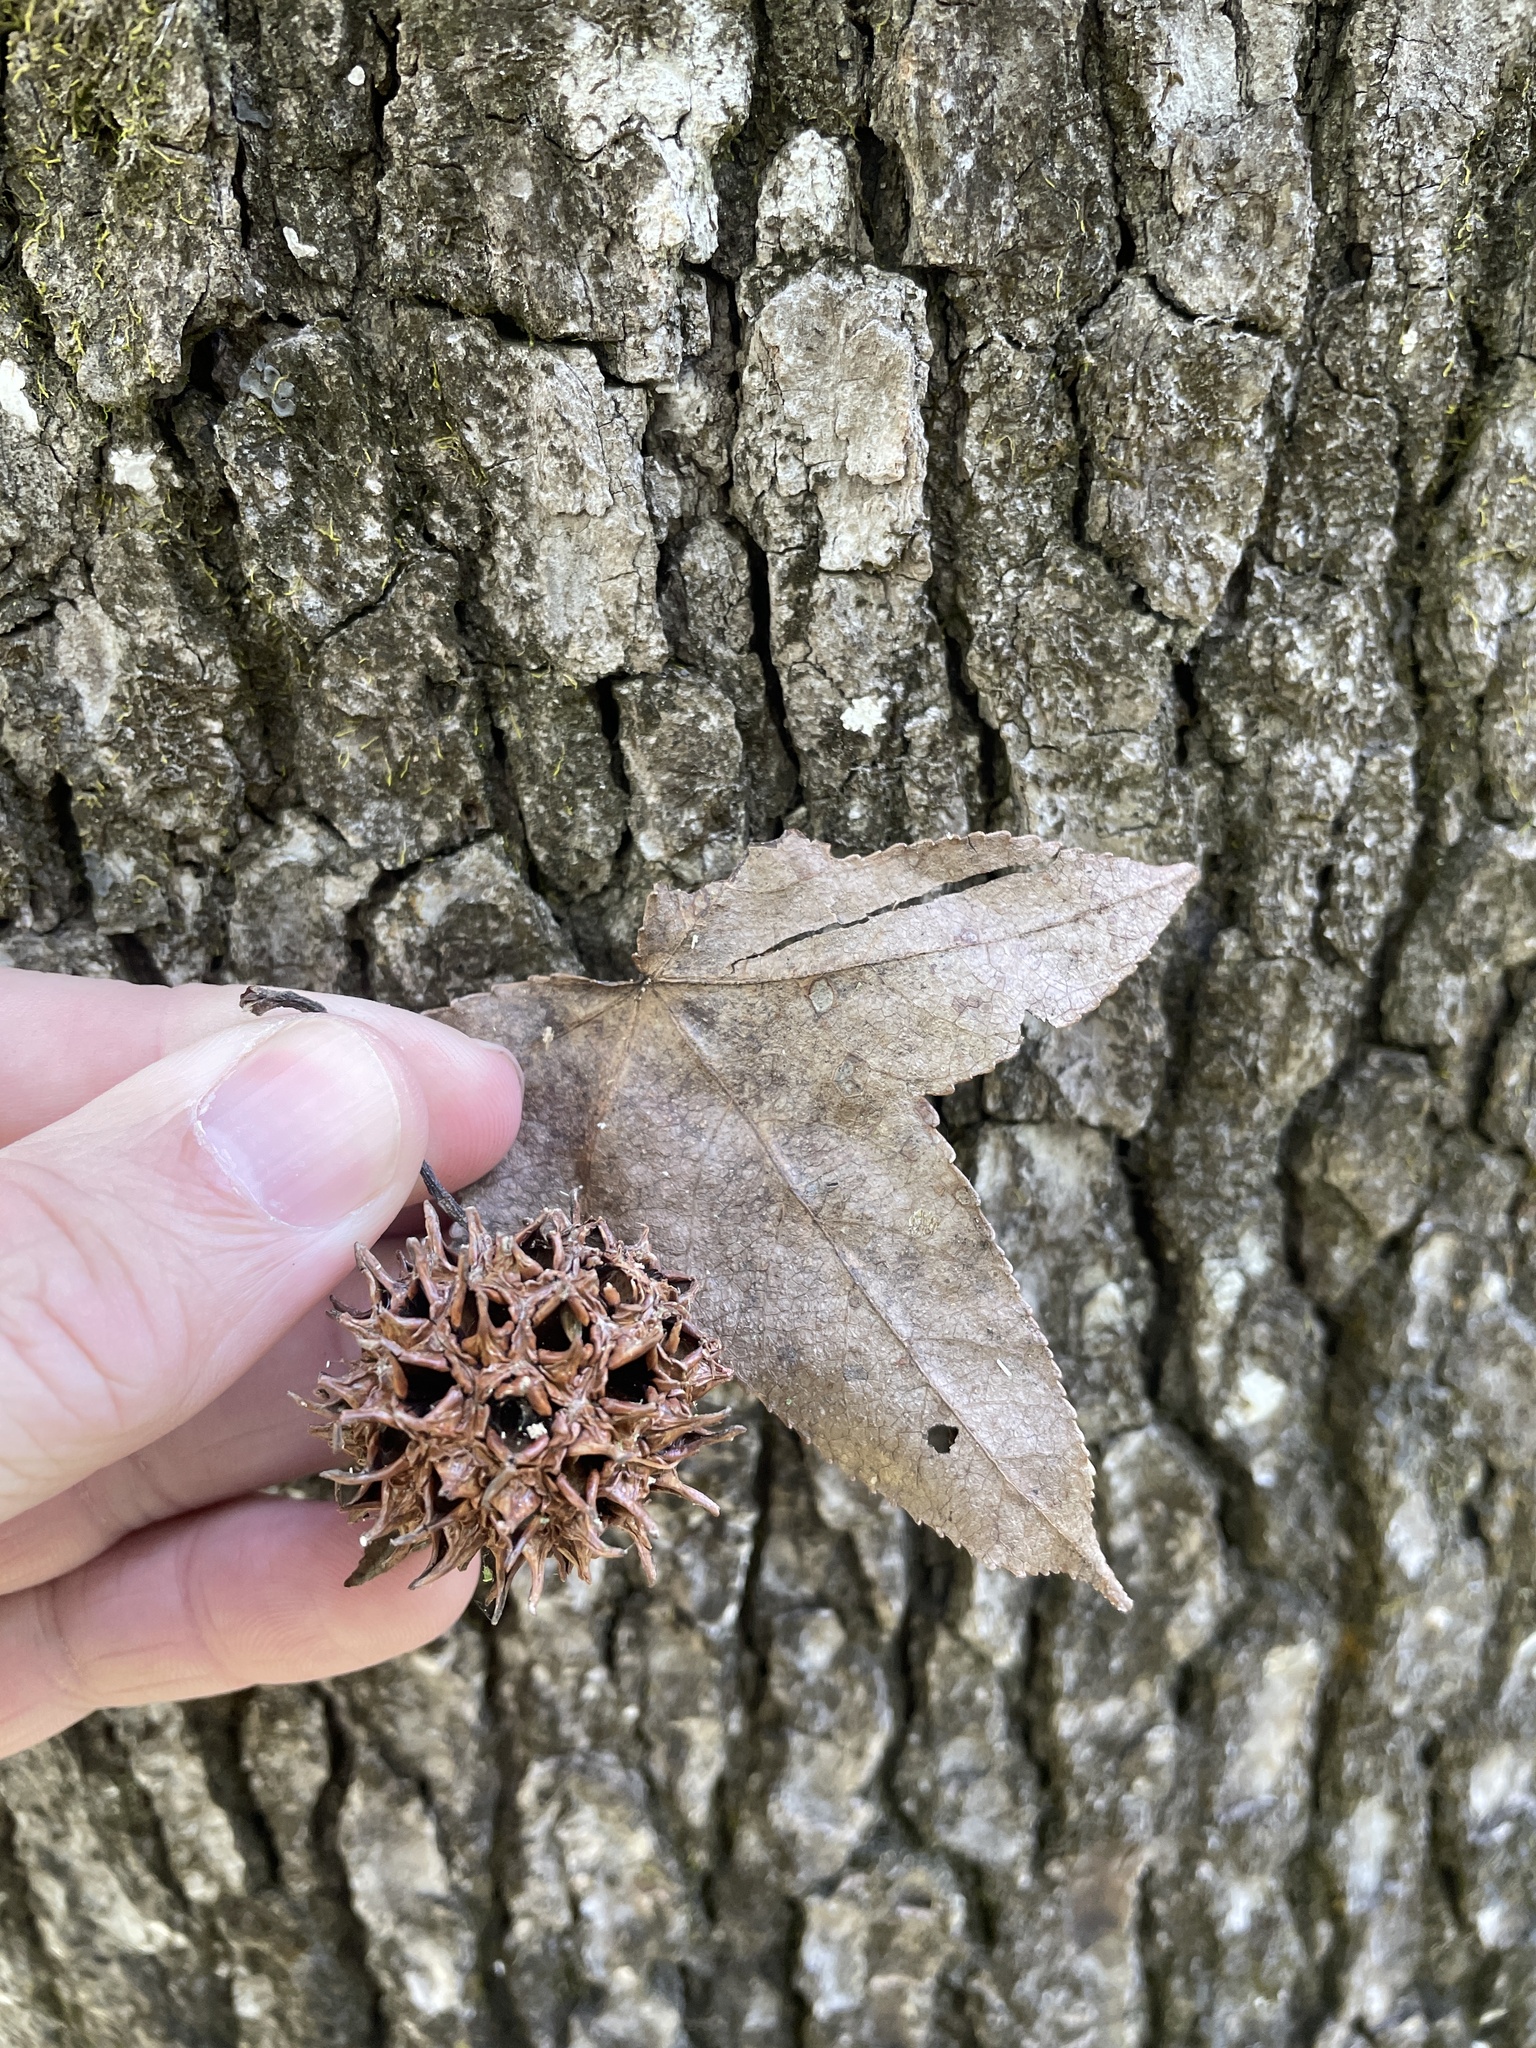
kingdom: Plantae
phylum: Tracheophyta
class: Magnoliopsida
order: Saxifragales
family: Altingiaceae
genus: Liquidambar
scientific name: Liquidambar styraciflua
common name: Sweet gum
